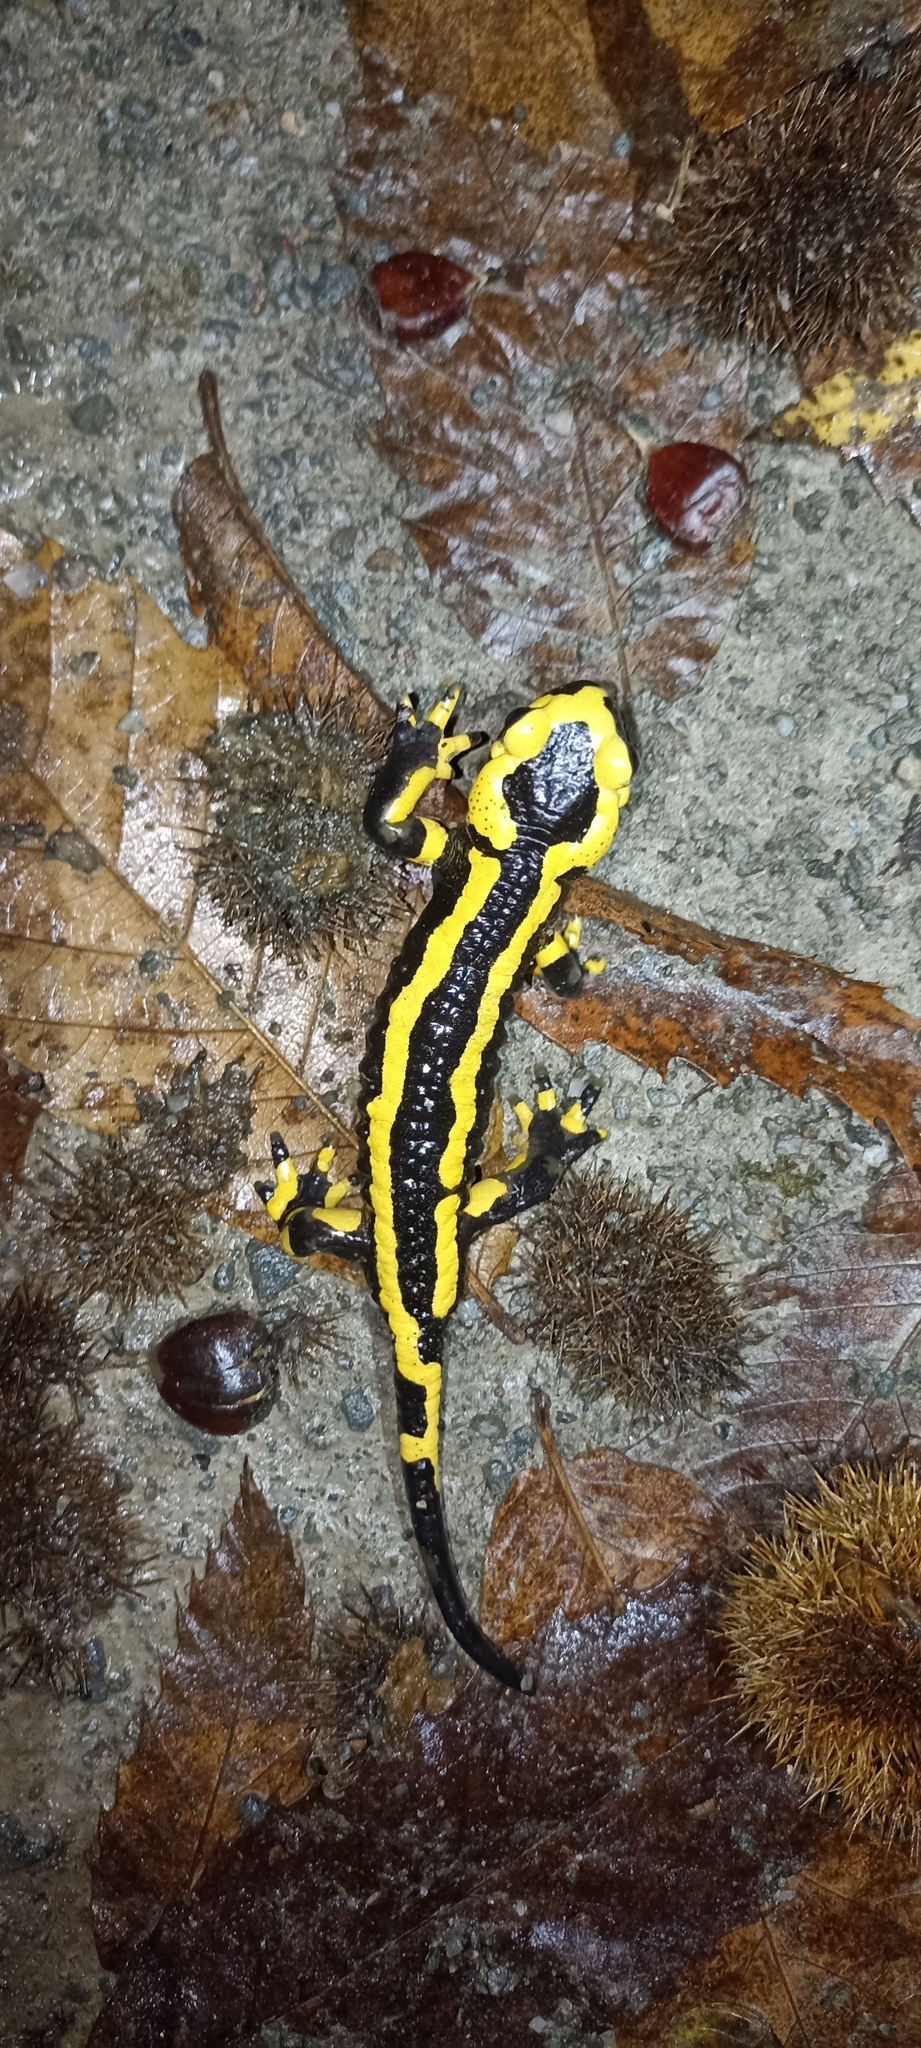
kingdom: Animalia
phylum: Chordata
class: Amphibia
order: Caudata
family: Salamandridae
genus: Salamandra
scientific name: Salamandra salamandra
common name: Fire salamander
